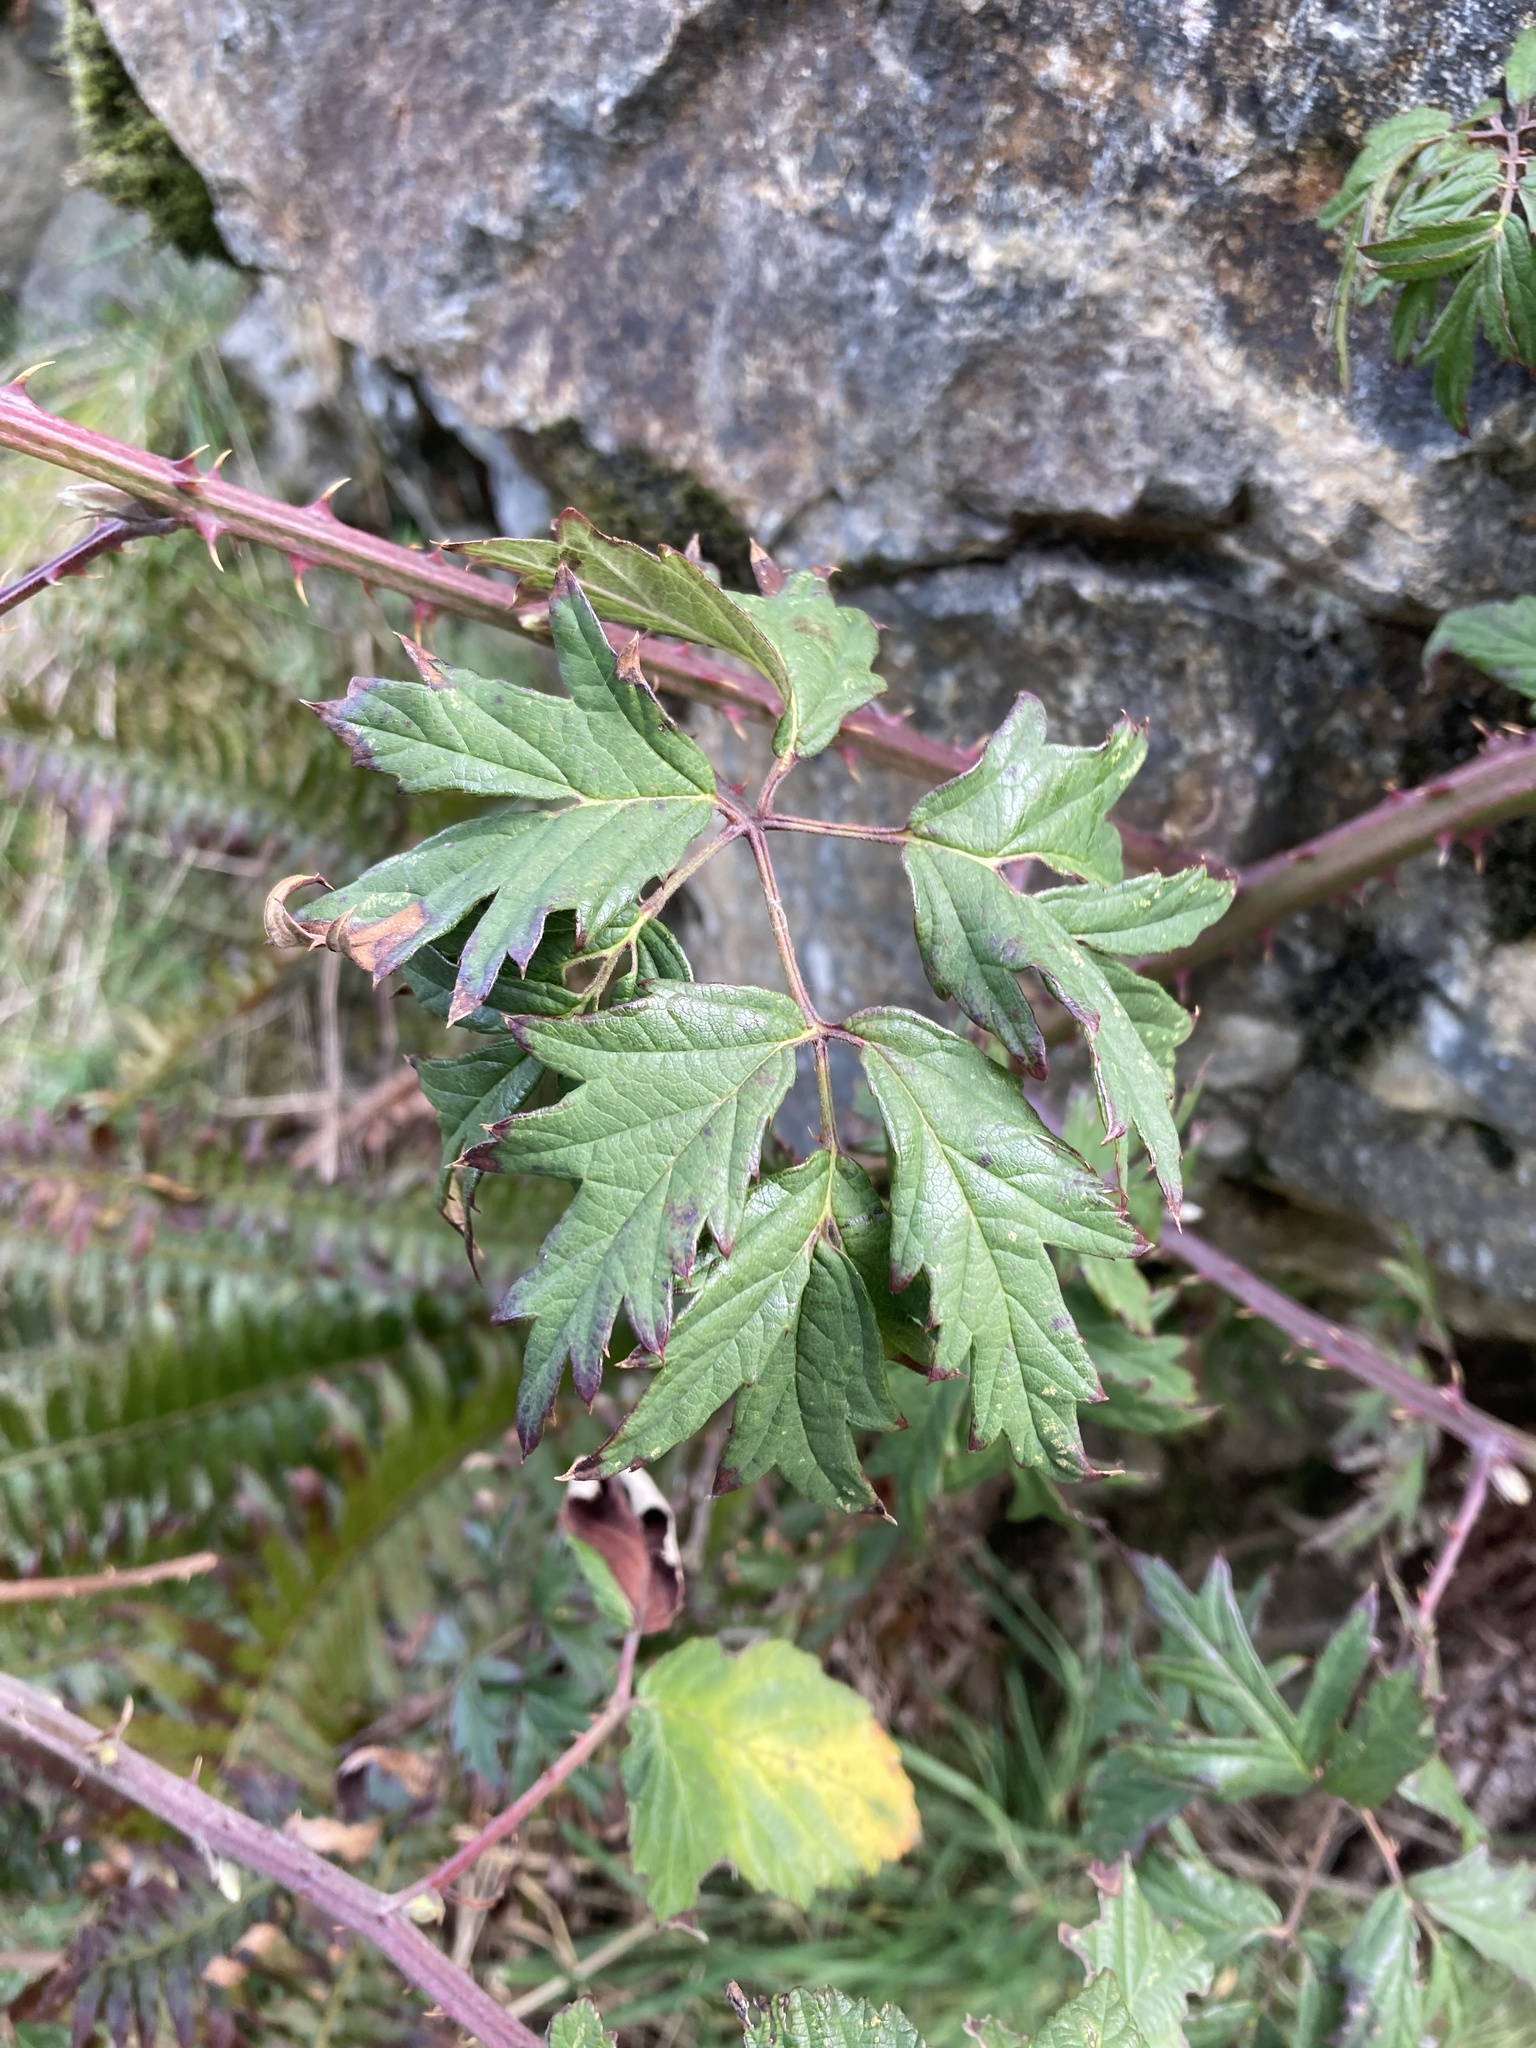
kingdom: Plantae
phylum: Tracheophyta
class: Magnoliopsida
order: Rosales
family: Rosaceae
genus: Rubus
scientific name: Rubus laciniatus
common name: Evergreen blackberry
